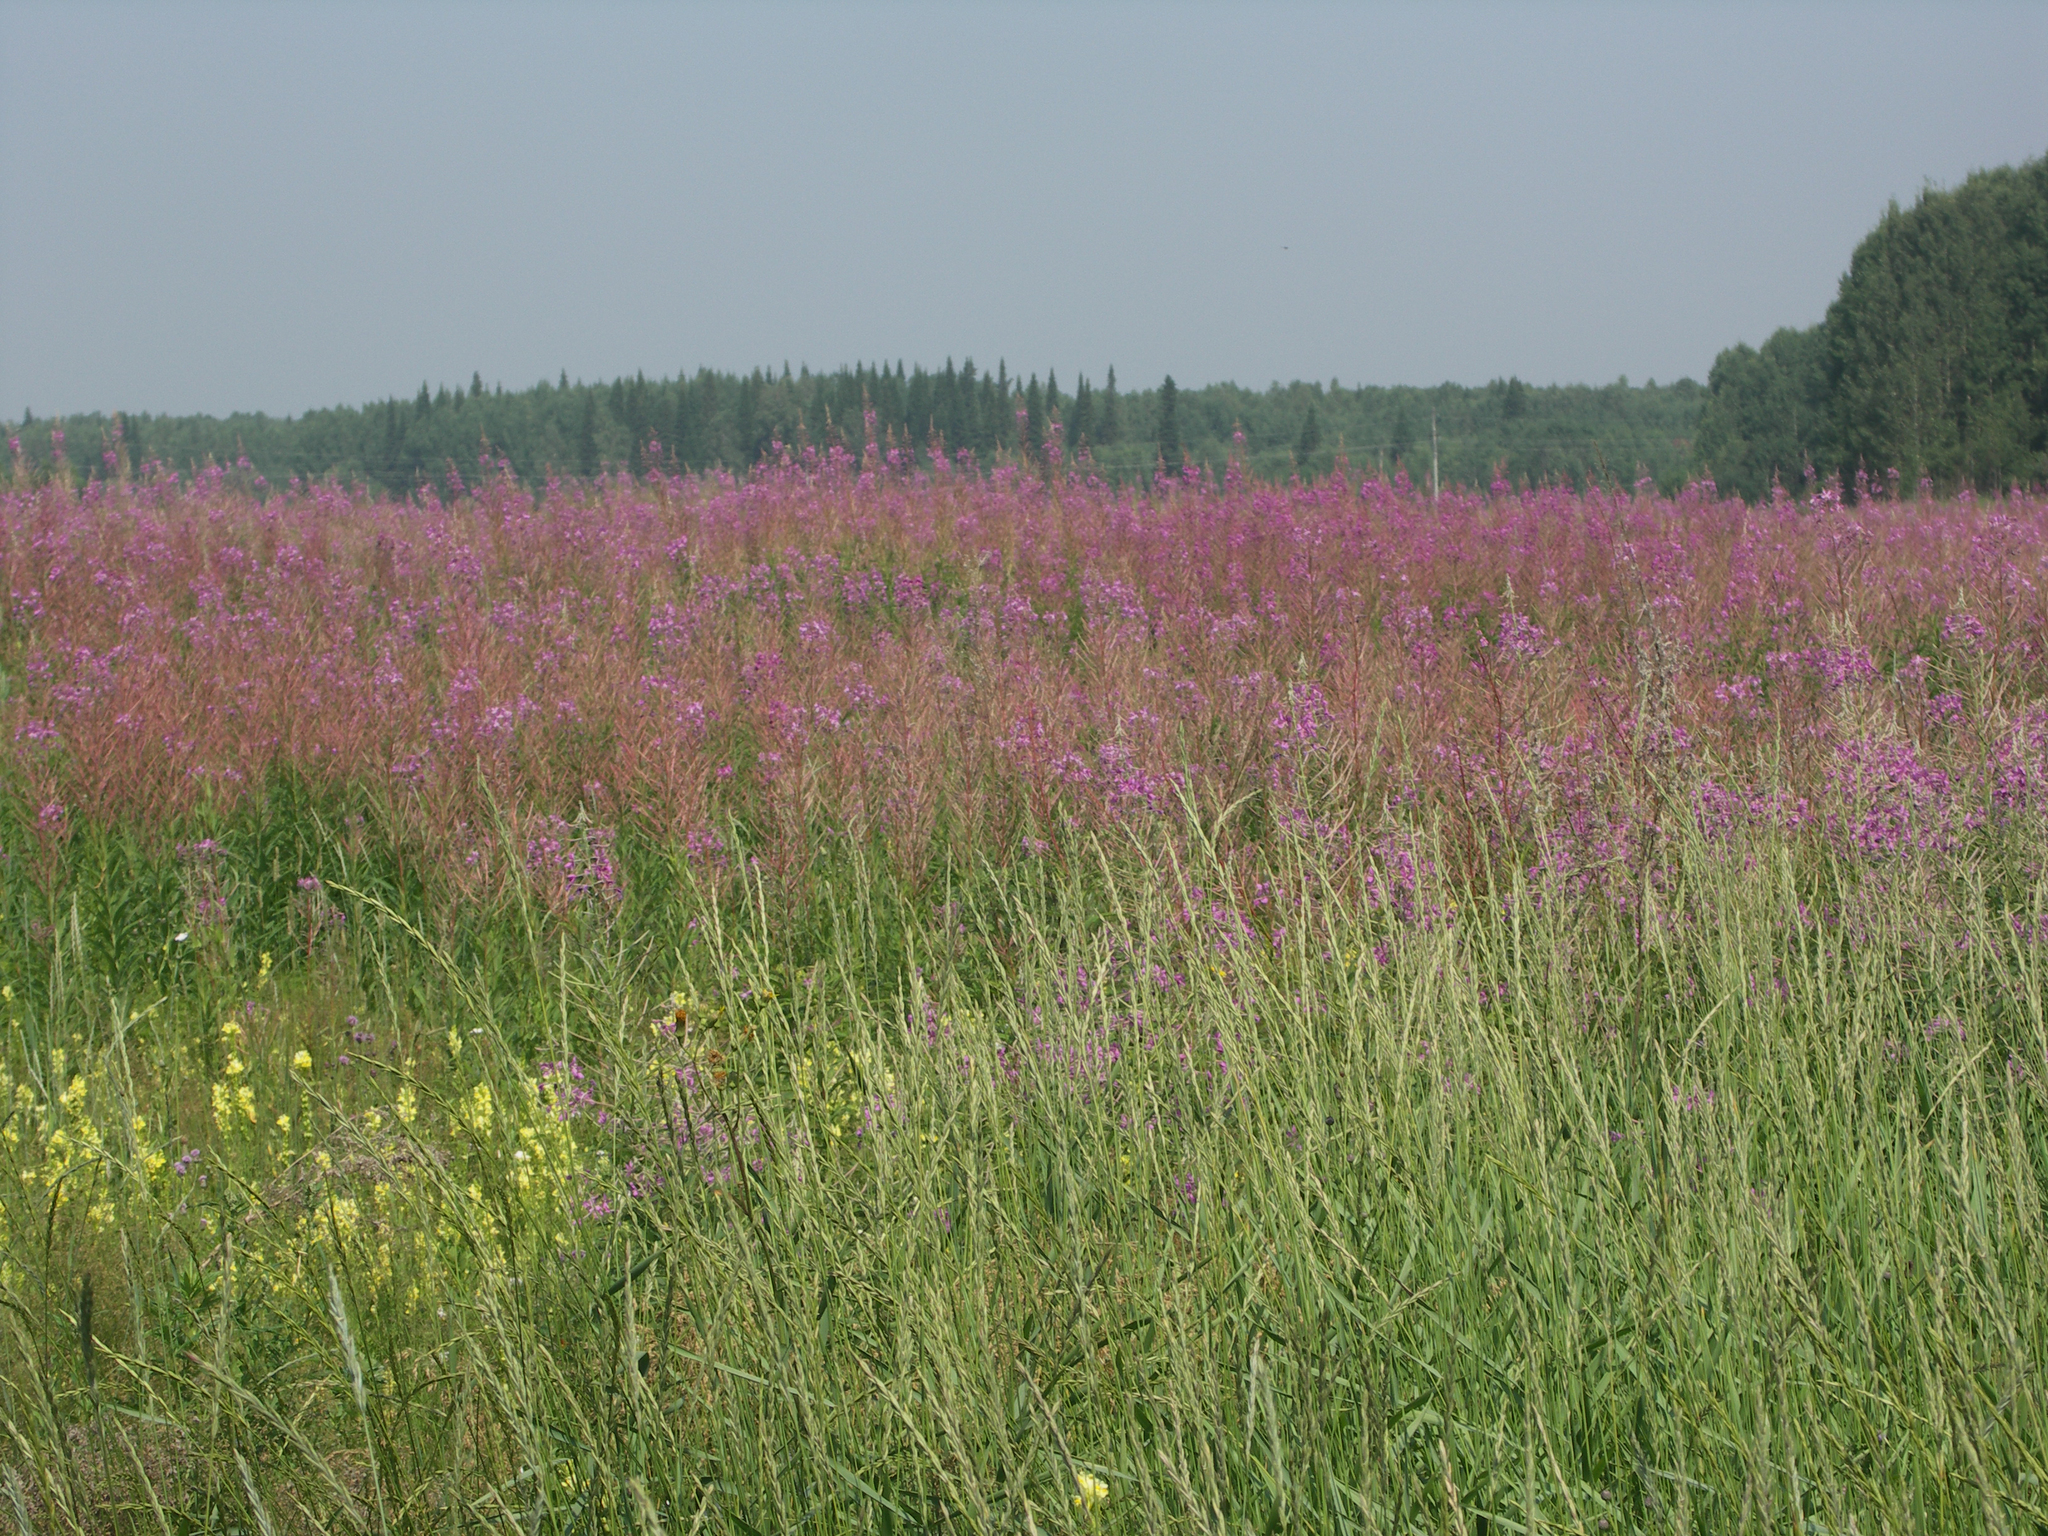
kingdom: Plantae
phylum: Tracheophyta
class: Magnoliopsida
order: Myrtales
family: Onagraceae
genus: Chamaenerion
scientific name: Chamaenerion angustifolium
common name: Fireweed
